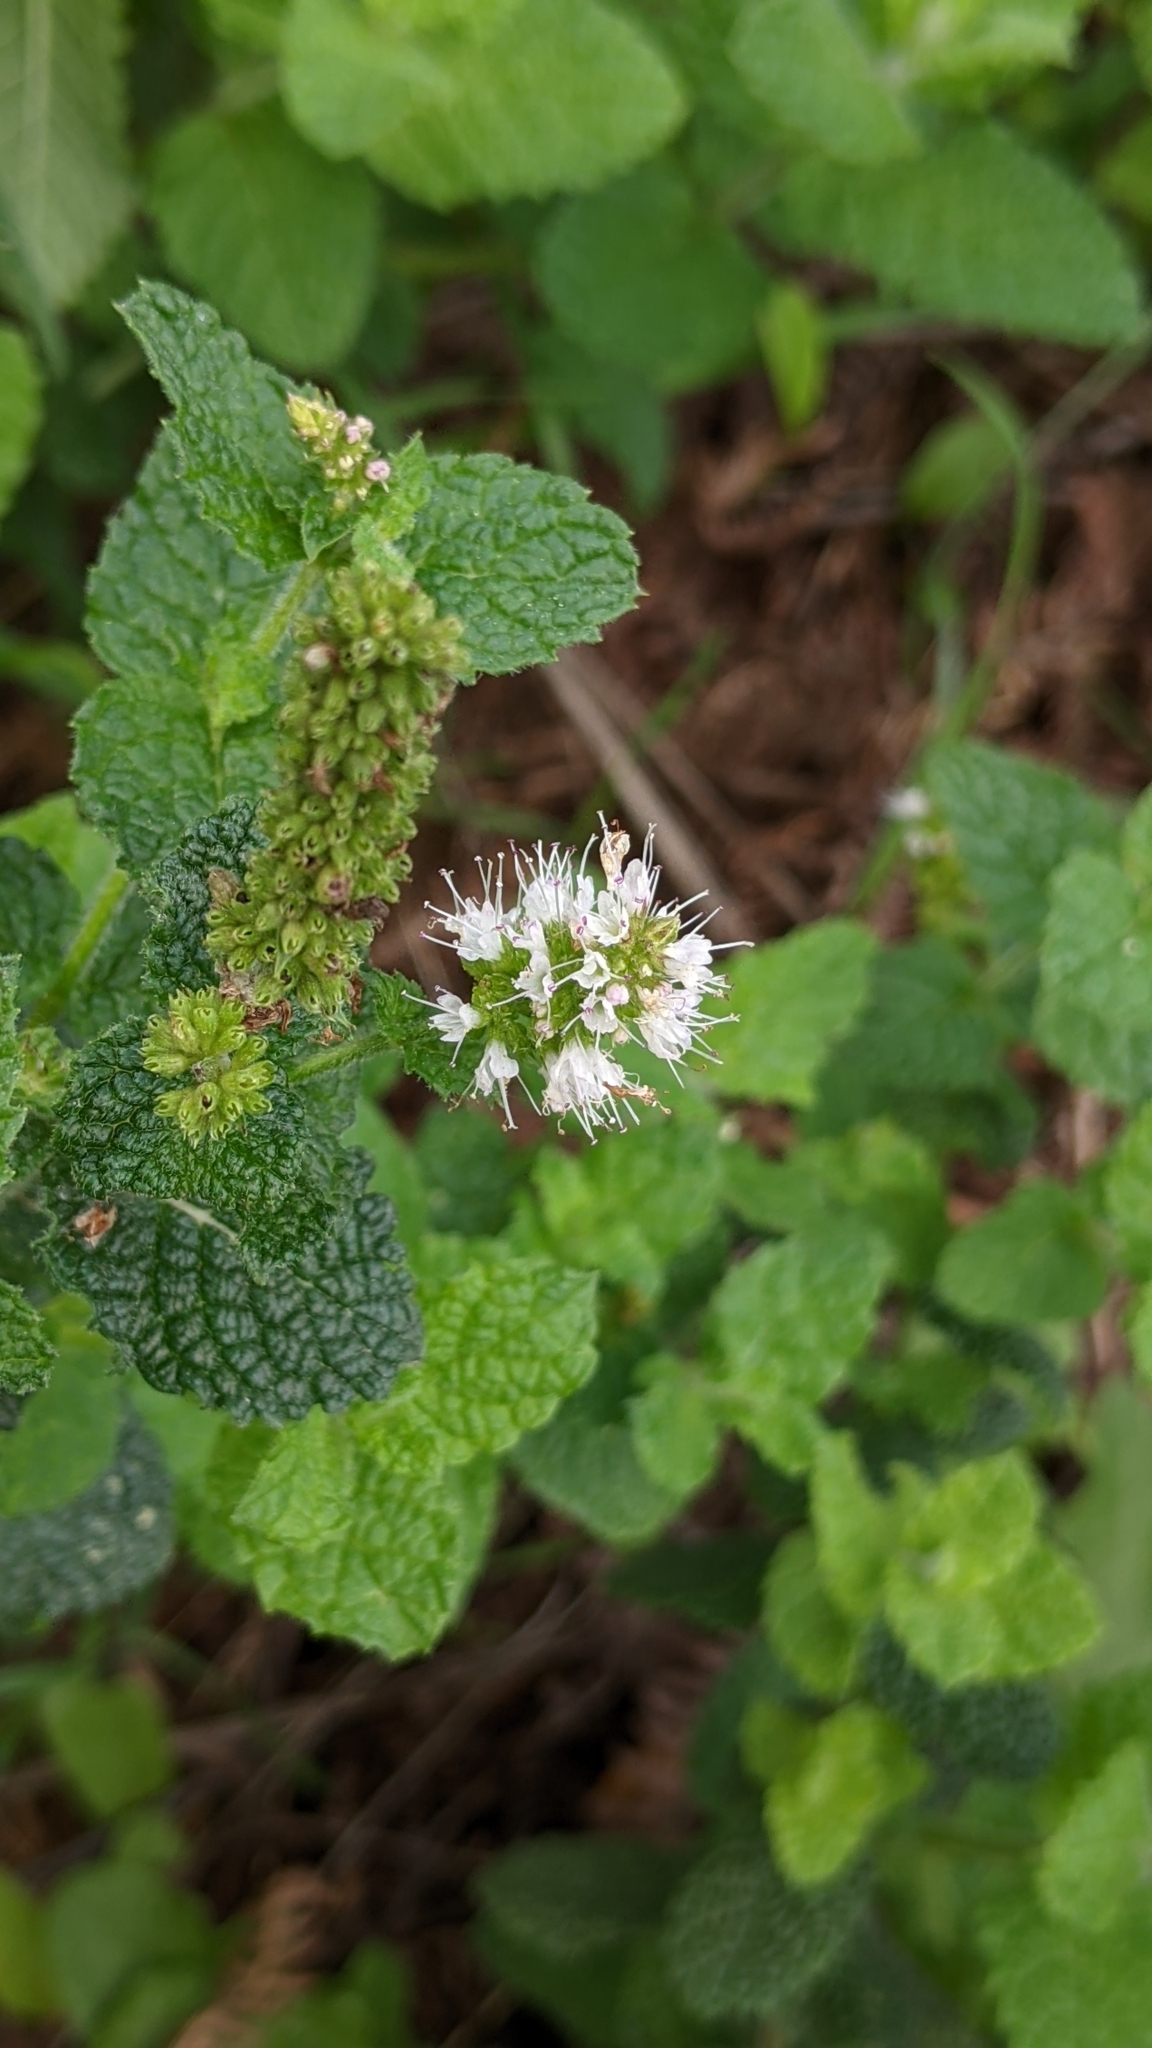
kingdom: Plantae
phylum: Tracheophyta
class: Magnoliopsida
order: Lamiales
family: Lamiaceae
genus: Mentha
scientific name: Mentha suaveolens
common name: Apple mint
